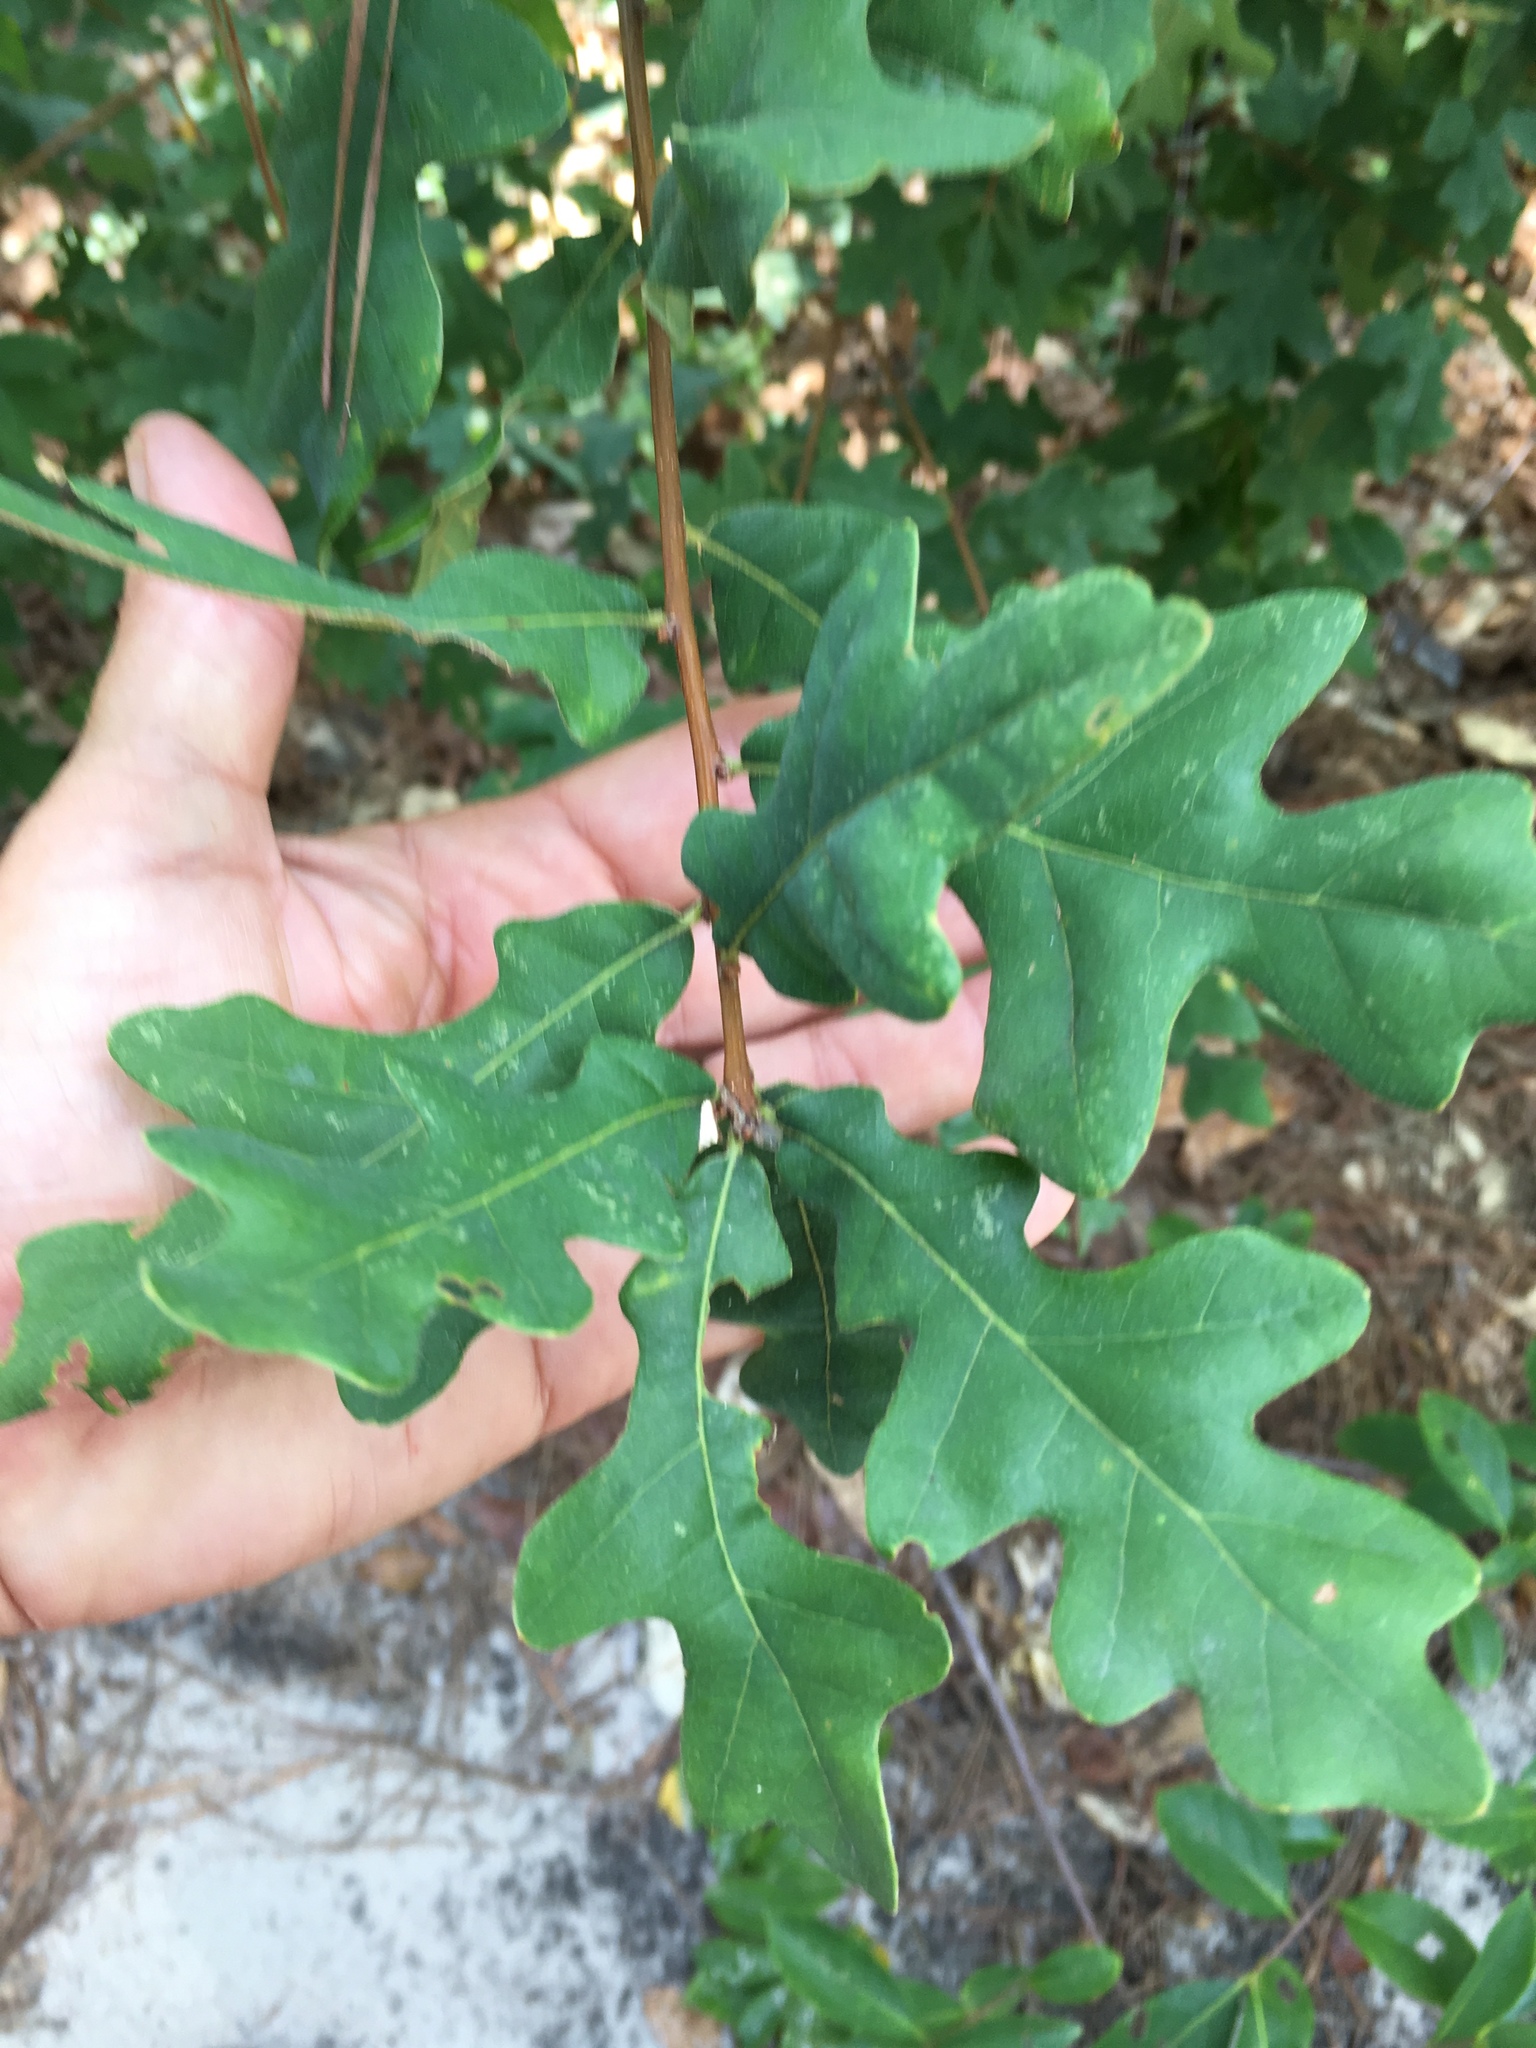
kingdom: Plantae
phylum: Tracheophyta
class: Magnoliopsida
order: Fagales
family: Fagaceae
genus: Quercus
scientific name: Quercus margaretiae
